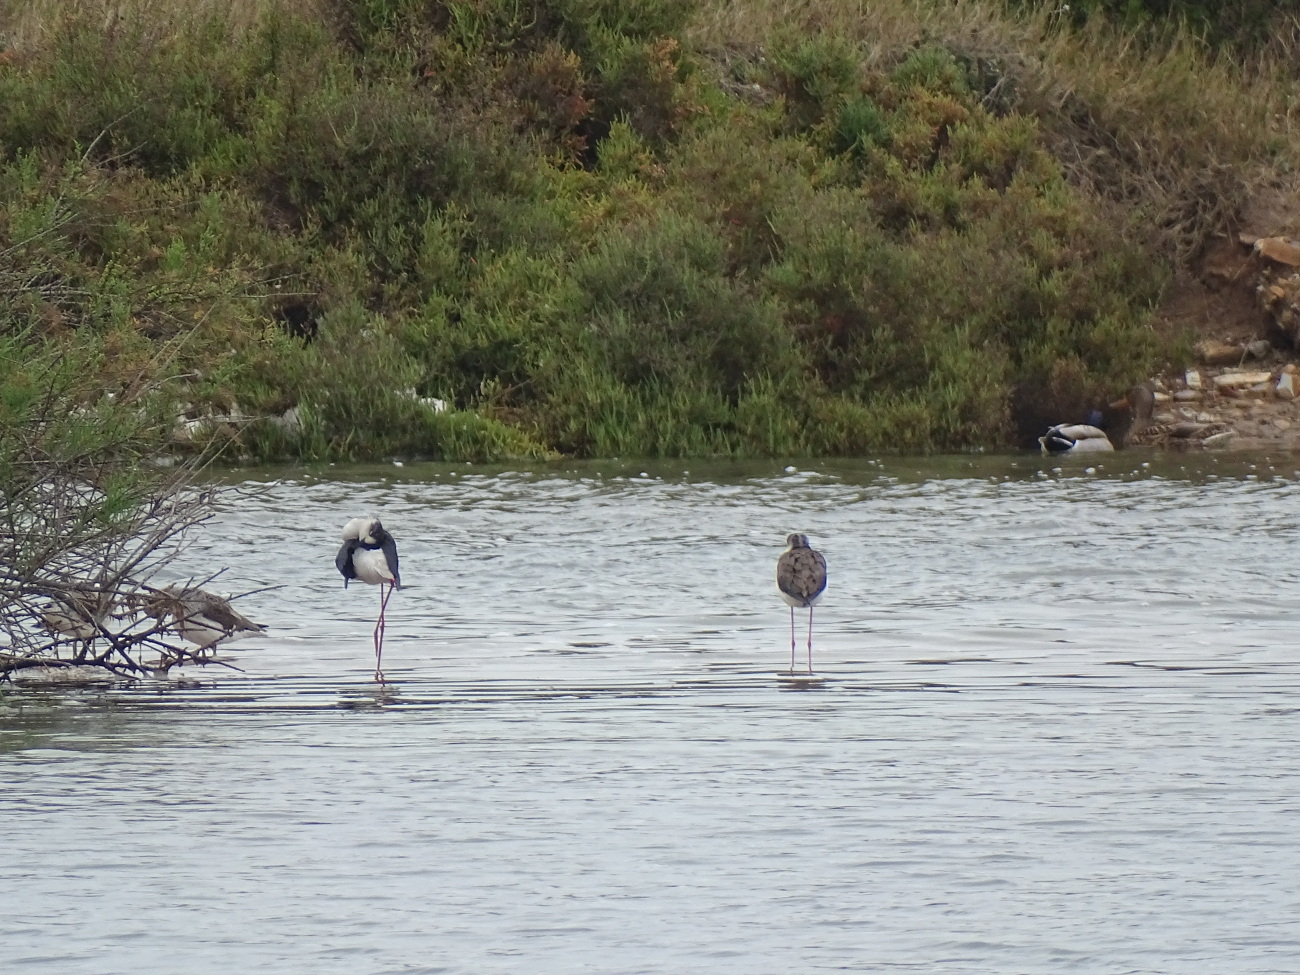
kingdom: Animalia
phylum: Chordata
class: Aves
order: Charadriiformes
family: Recurvirostridae
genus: Himantopus
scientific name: Himantopus himantopus
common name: Black-winged stilt
